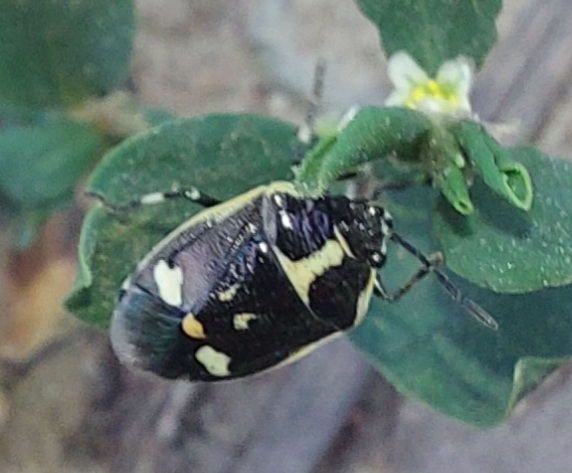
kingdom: Animalia
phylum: Arthropoda
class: Insecta
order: Hemiptera
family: Pentatomidae
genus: Eurydema
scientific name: Eurydema oleracea
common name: Cabbage bug
